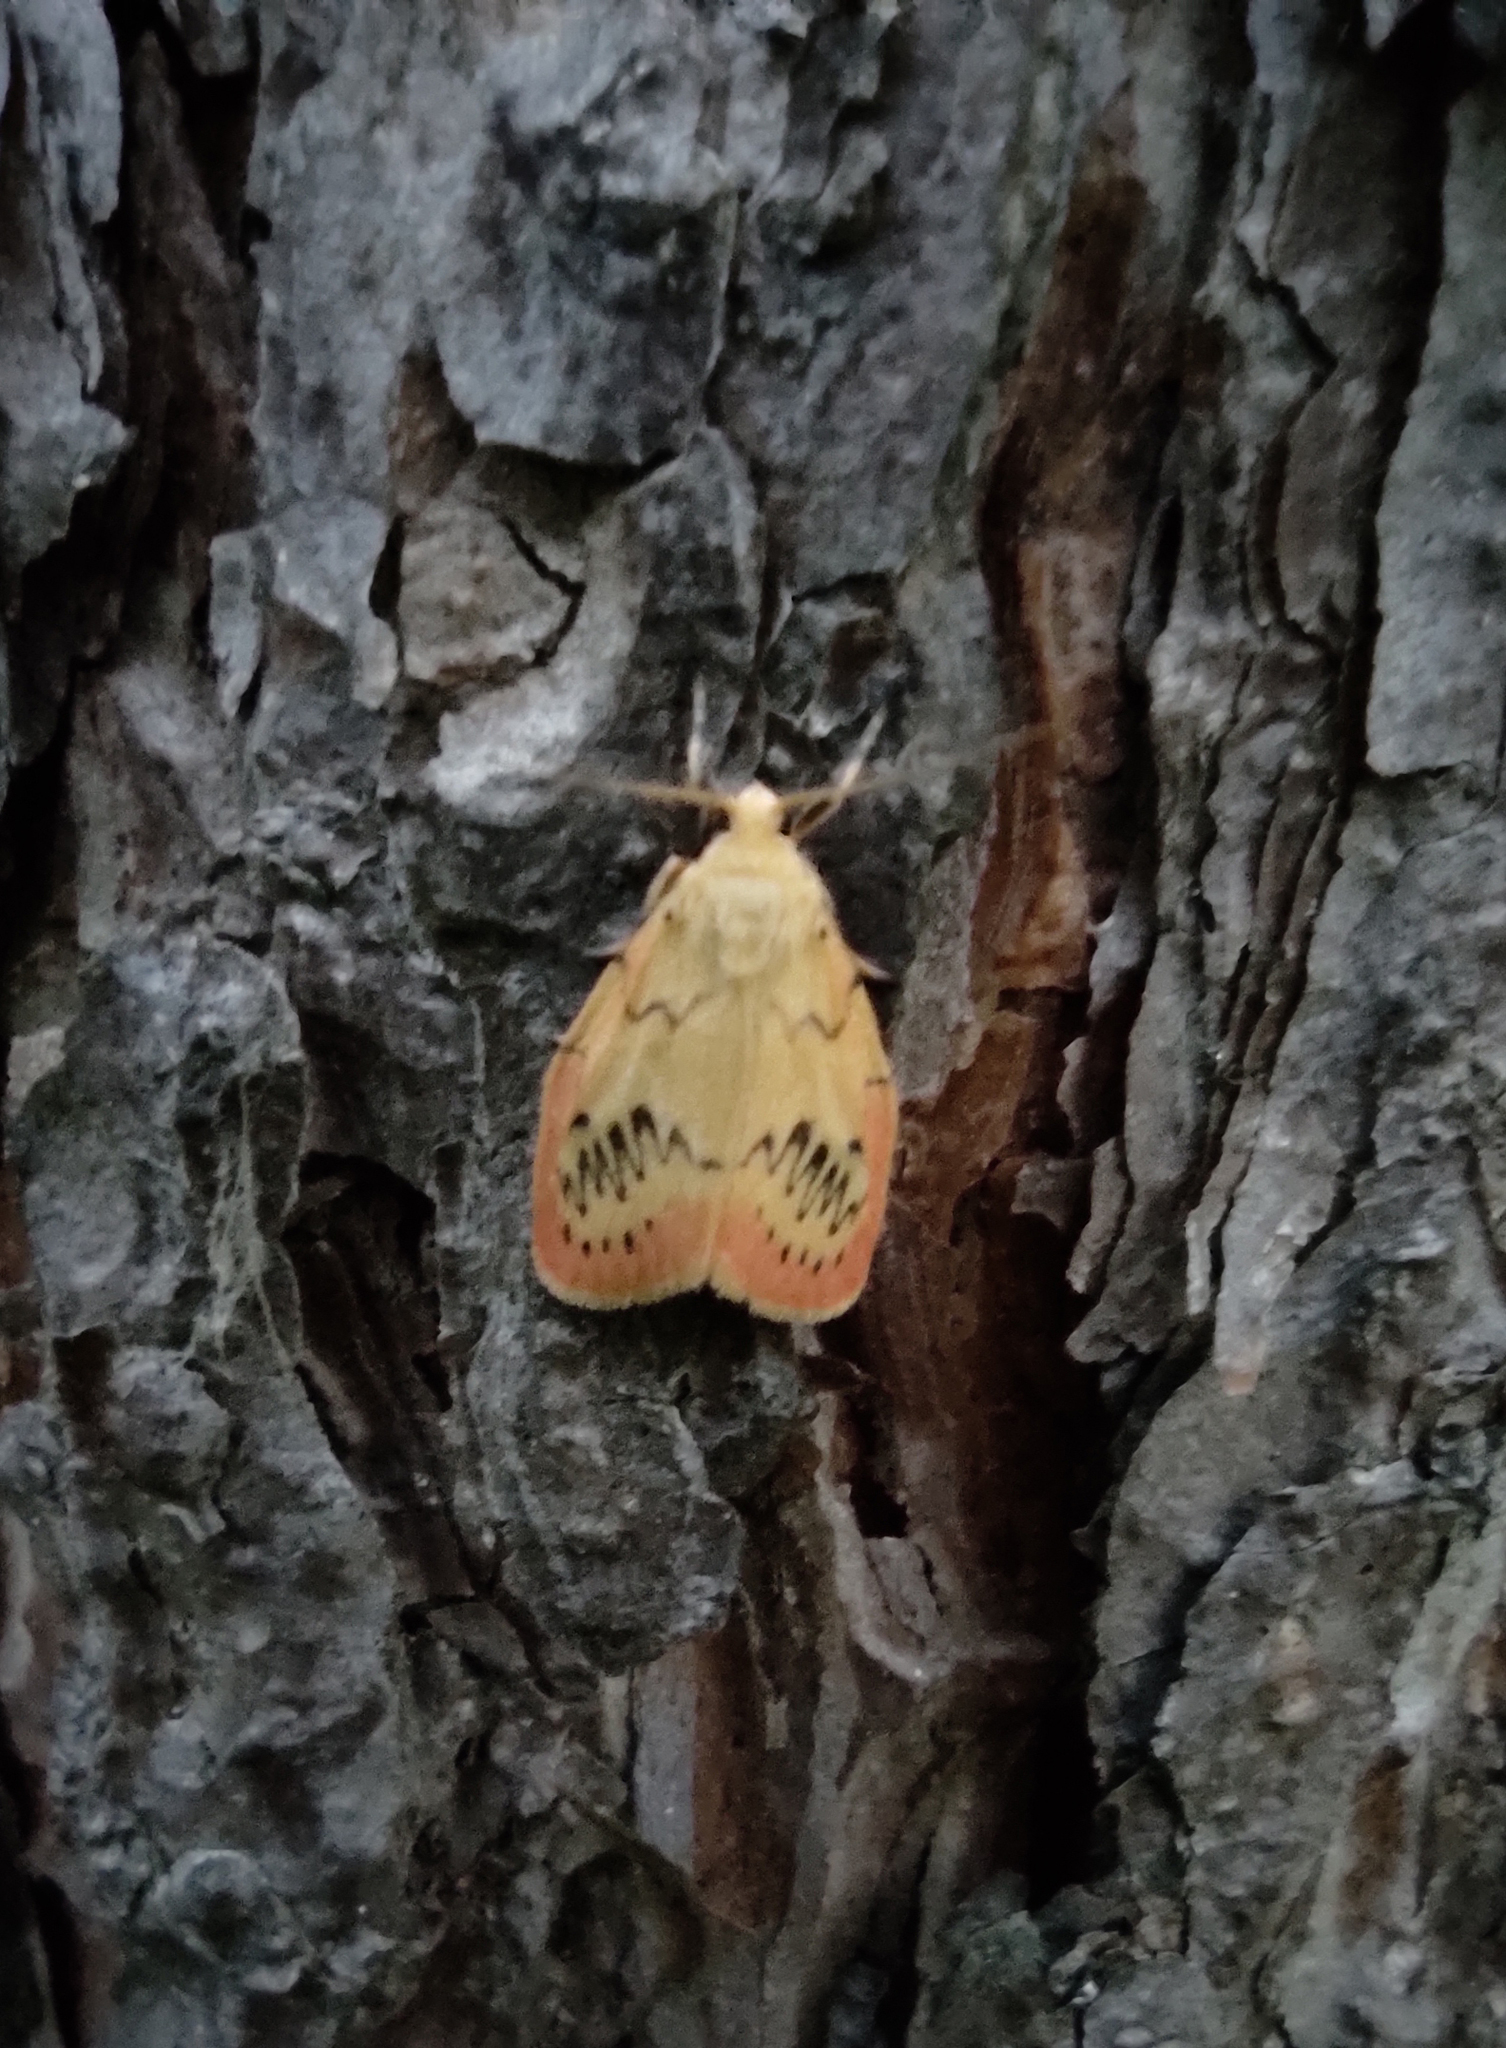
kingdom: Animalia
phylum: Arthropoda
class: Insecta
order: Lepidoptera
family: Erebidae
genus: Miltochrista
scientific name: Miltochrista miniata
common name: Rosy footman
